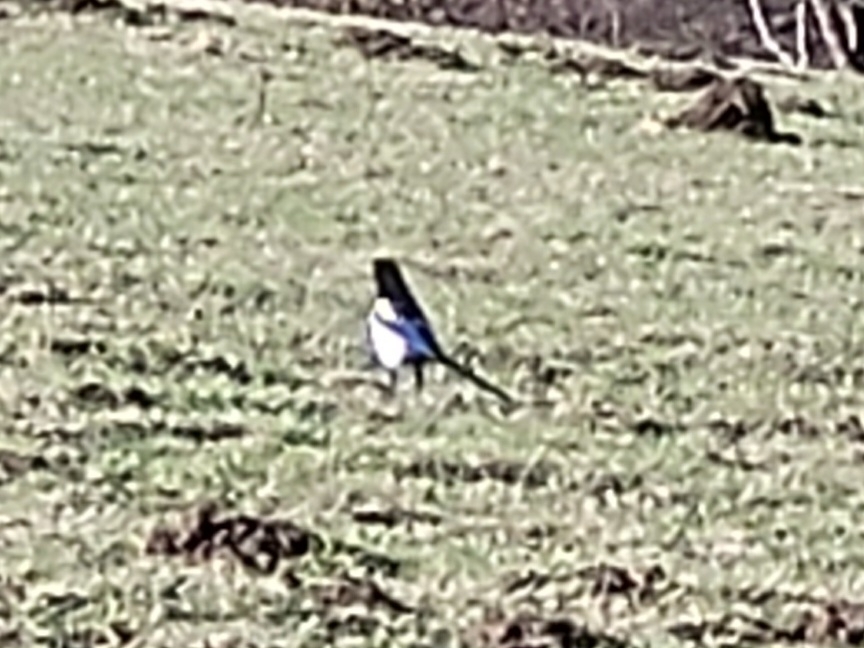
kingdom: Animalia
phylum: Chordata
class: Aves
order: Passeriformes
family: Corvidae
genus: Pica
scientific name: Pica pica
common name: Eurasian magpie
